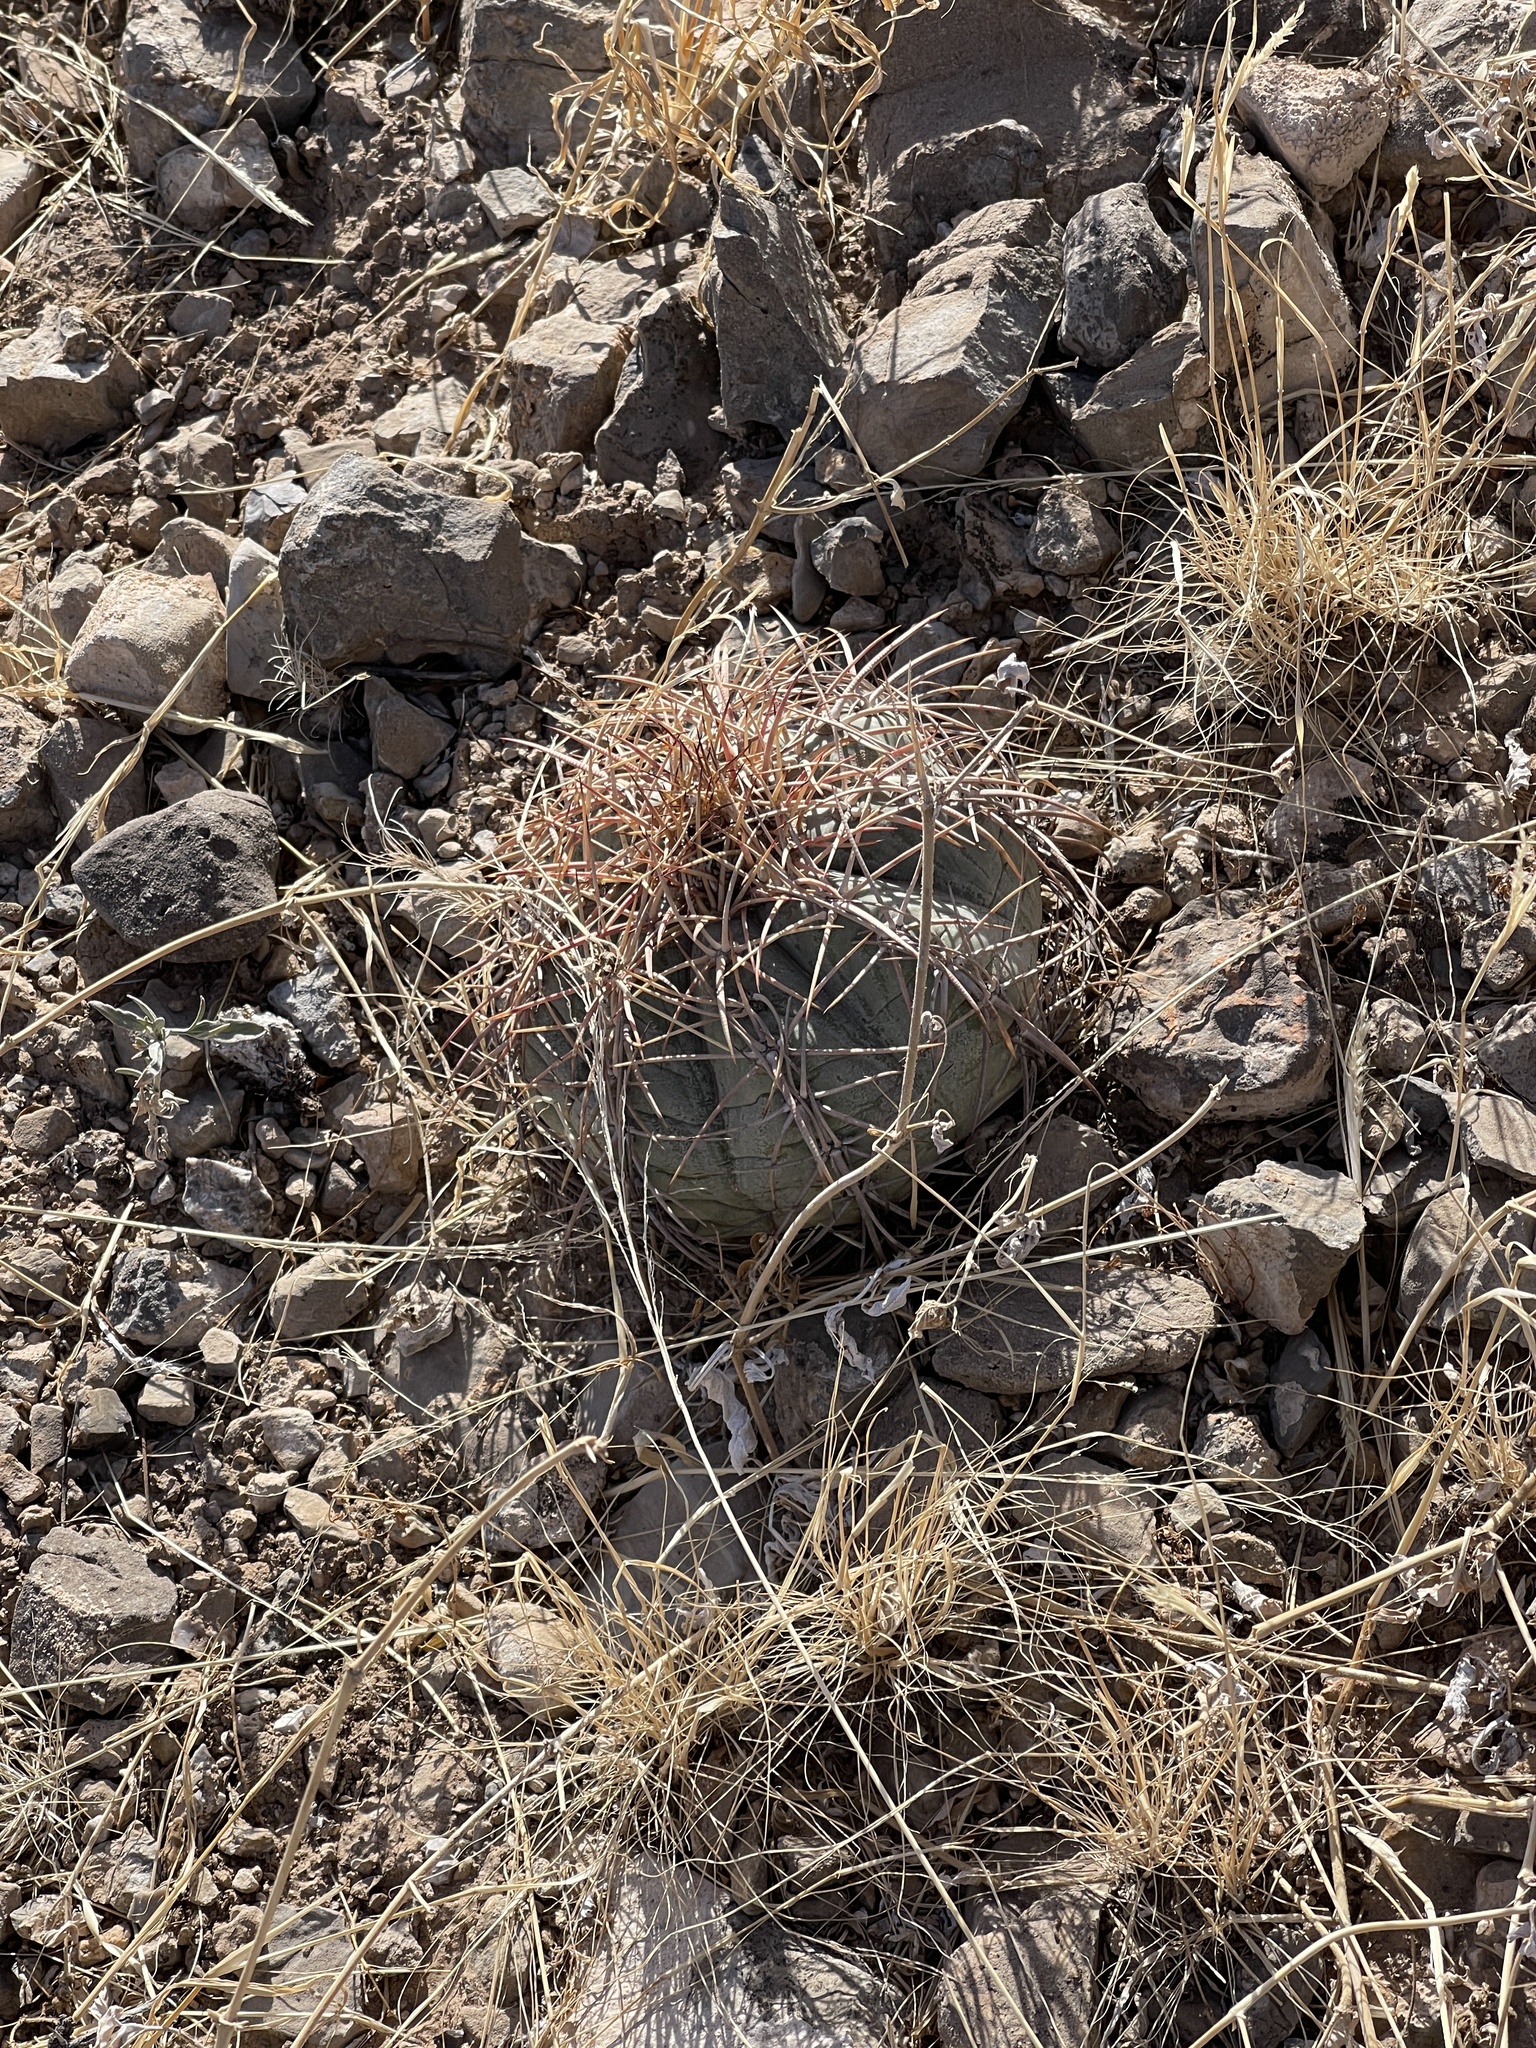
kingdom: Plantae
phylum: Tracheophyta
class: Magnoliopsida
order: Caryophyllales
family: Cactaceae
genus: Echinocactus
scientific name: Echinocactus horizonthalonius
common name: Devilshead
